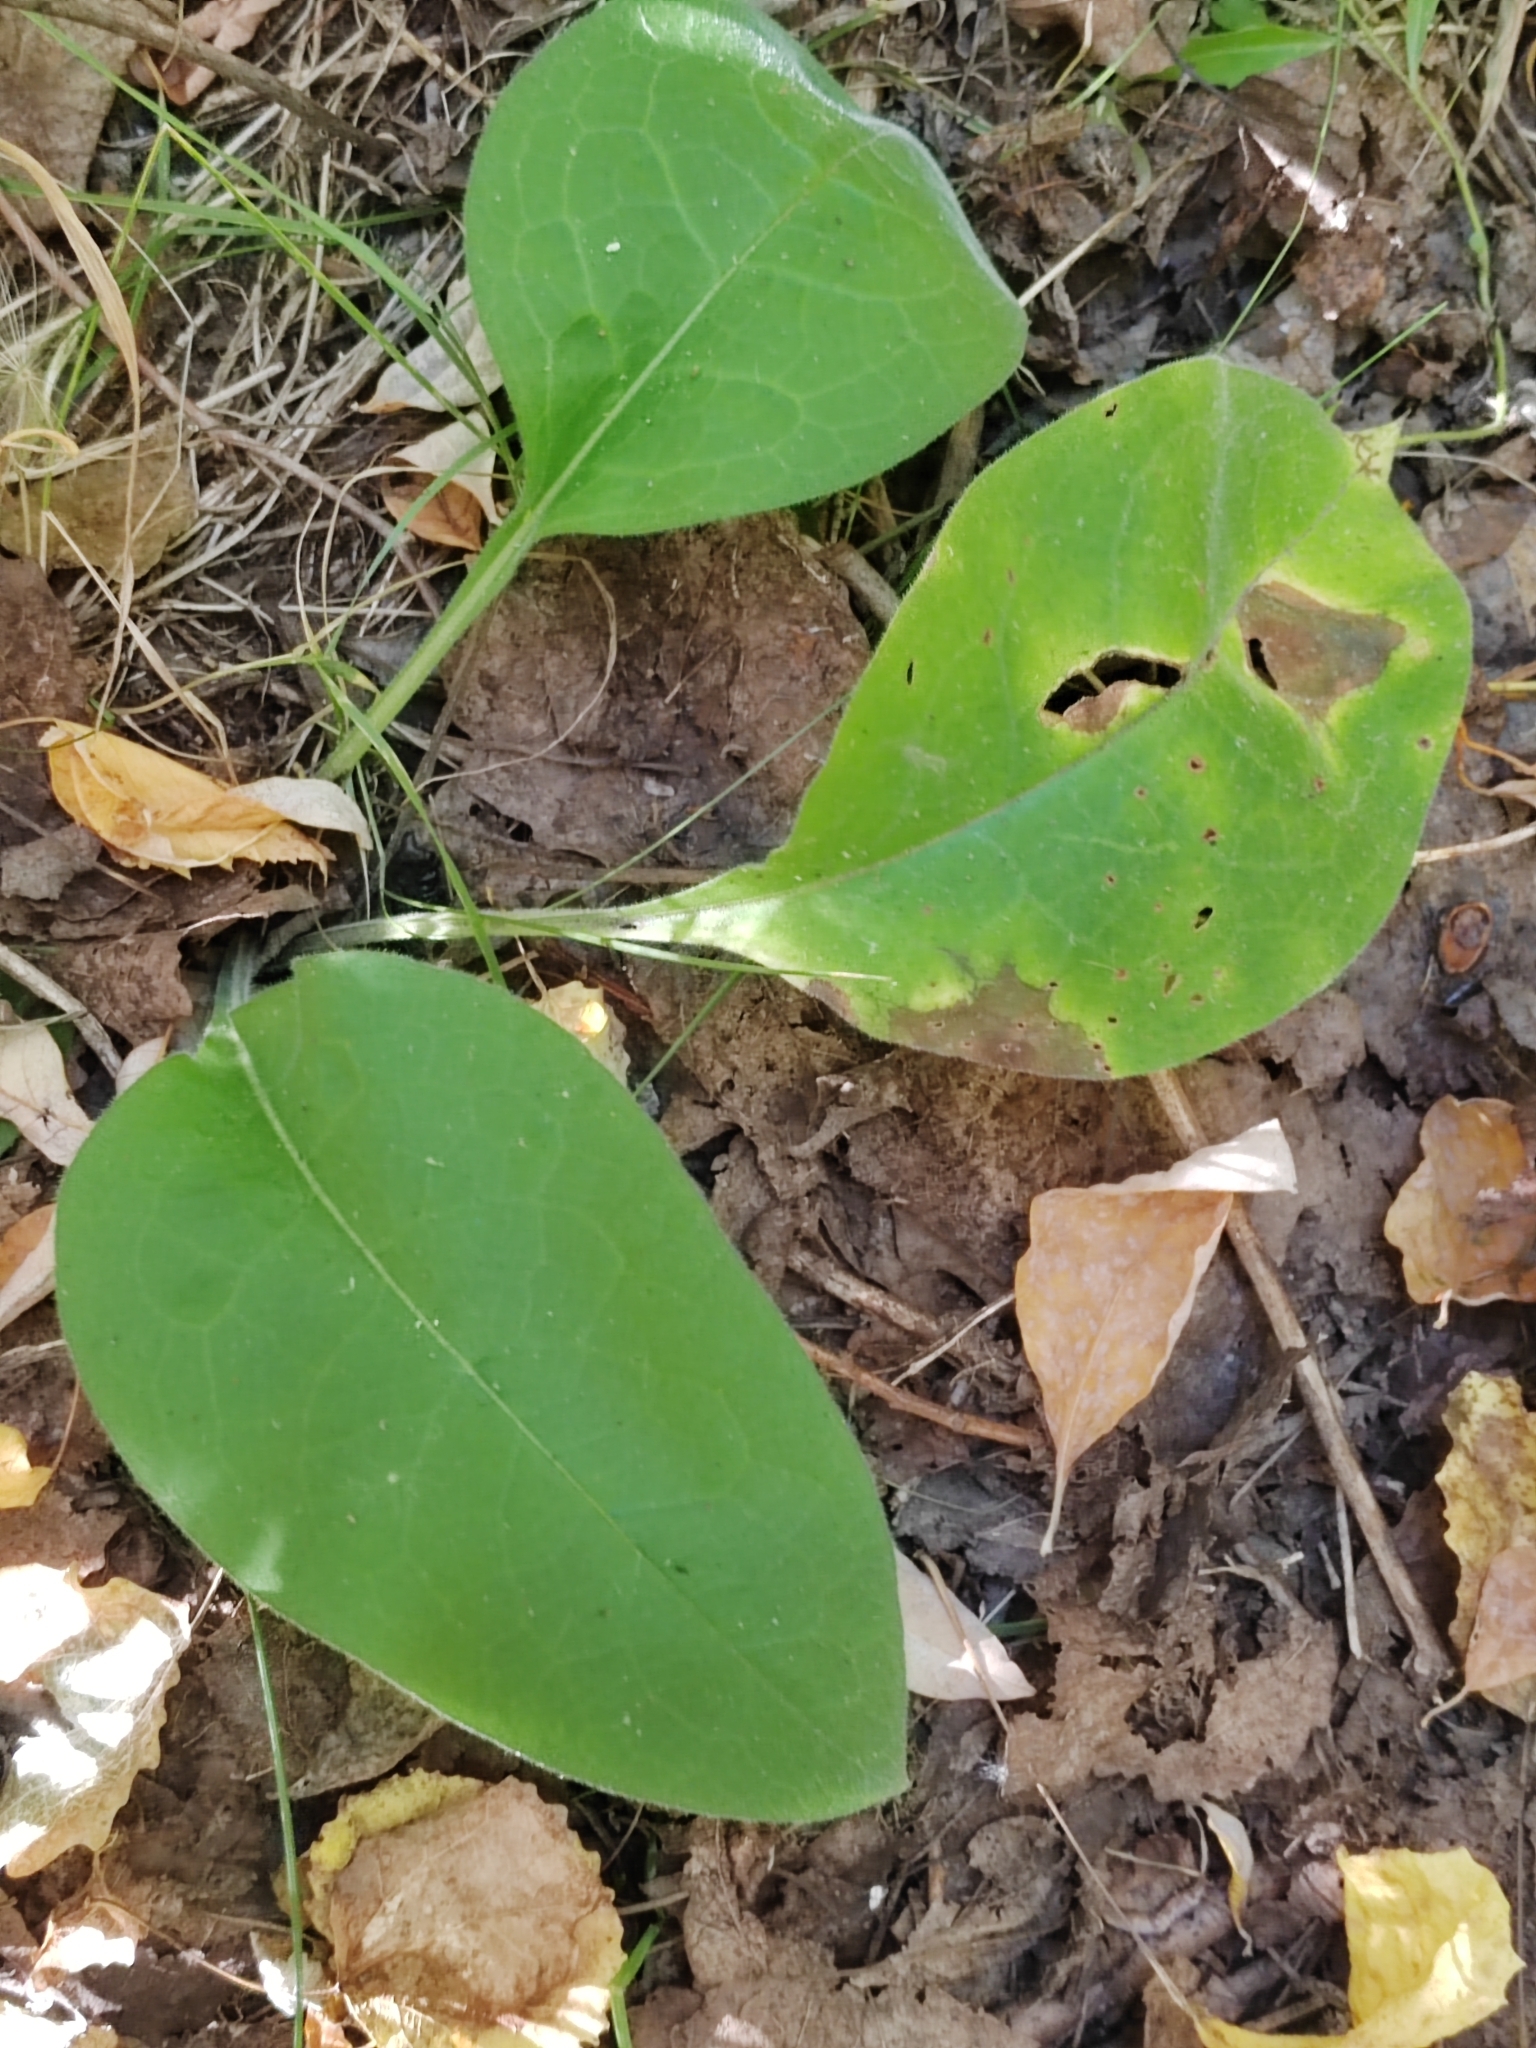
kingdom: Plantae
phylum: Tracheophyta
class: Magnoliopsida
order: Boraginales
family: Boraginaceae
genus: Pulmonaria
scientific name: Pulmonaria mollis
